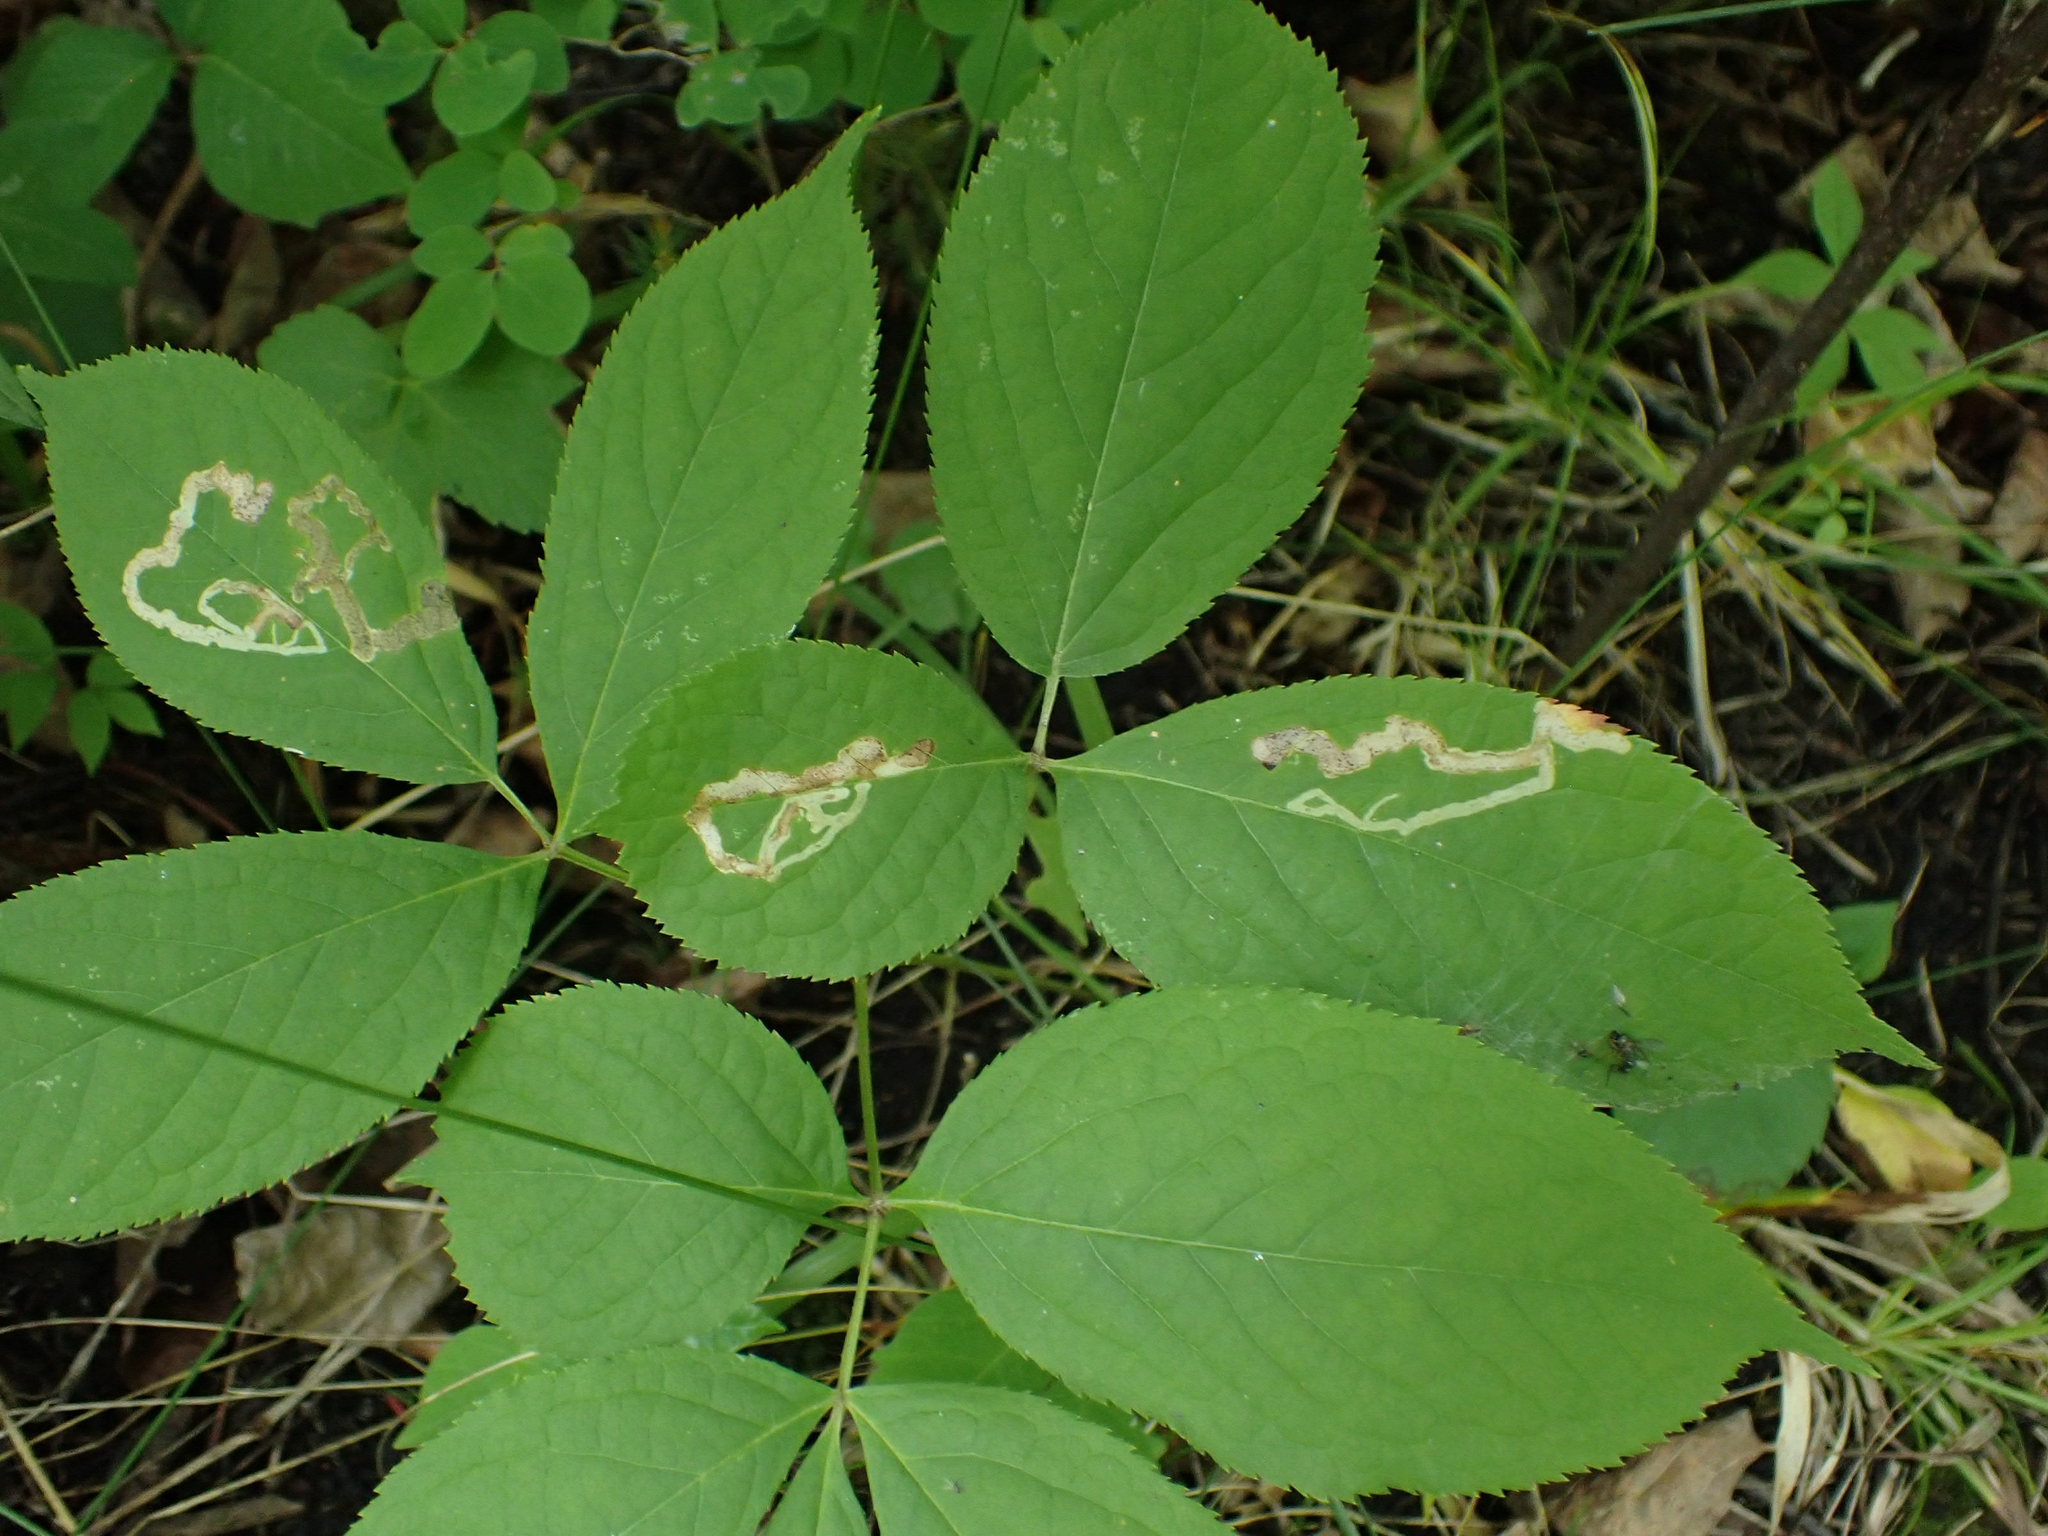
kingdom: Animalia
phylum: Arthropoda
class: Insecta
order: Diptera
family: Agromyzidae
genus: Phytomyza
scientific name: Phytomyza aralivora
